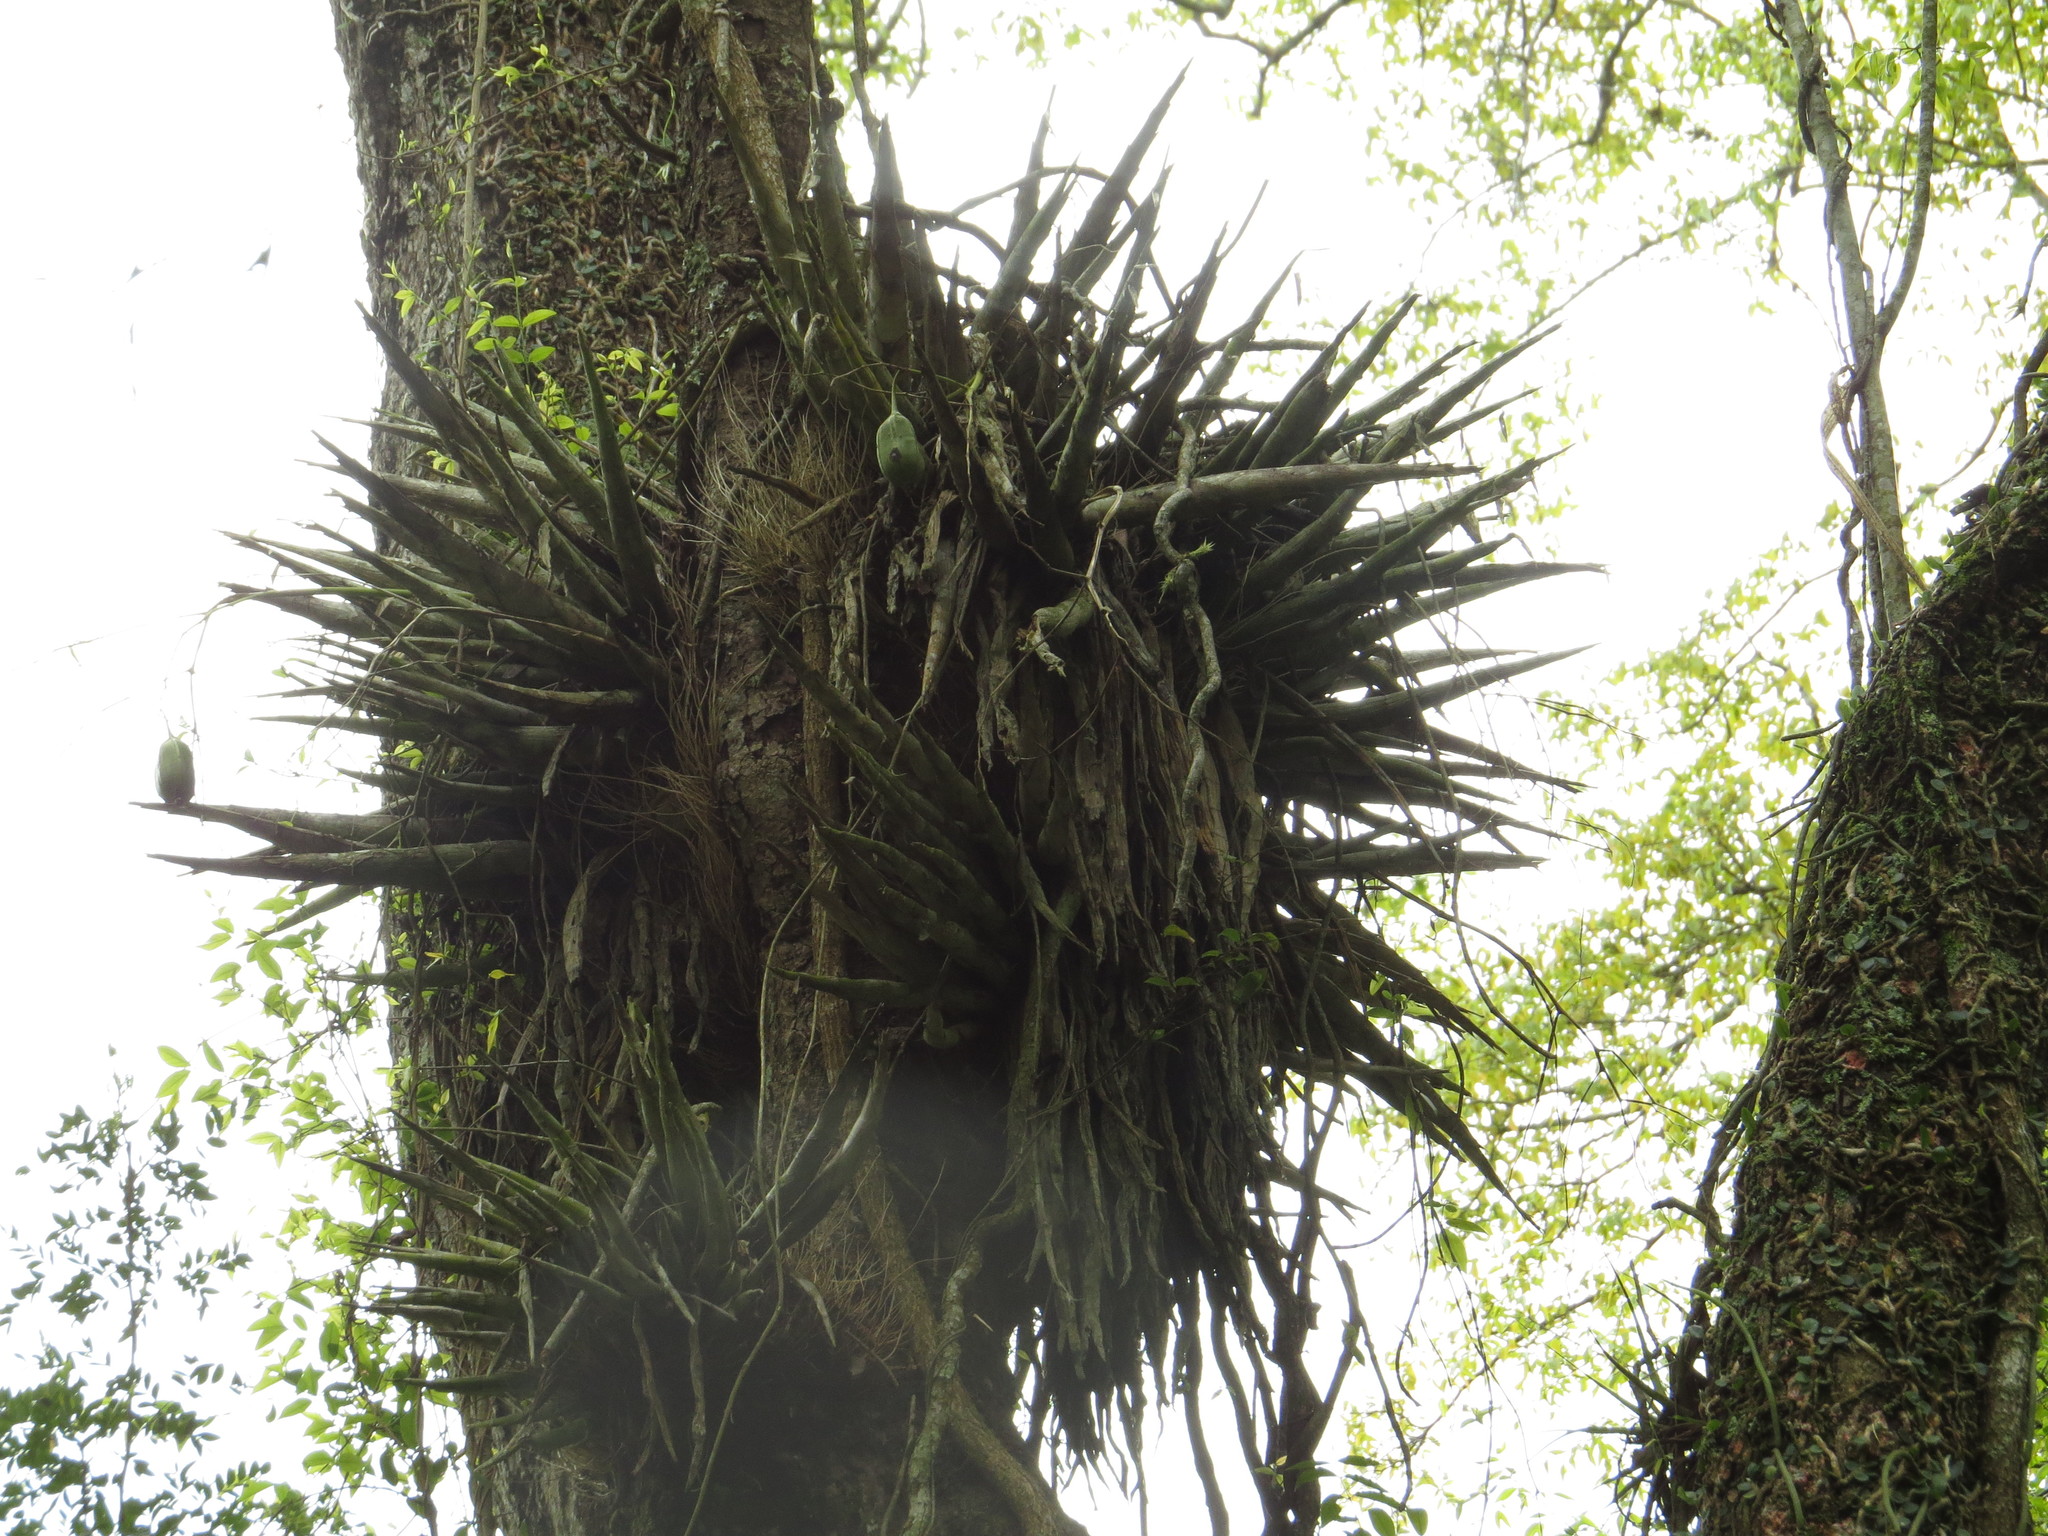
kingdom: Plantae
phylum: Tracheophyta
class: Magnoliopsida
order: Fabales
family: Fabaceae
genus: Gleditsia
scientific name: Gleditsia amorphoides
